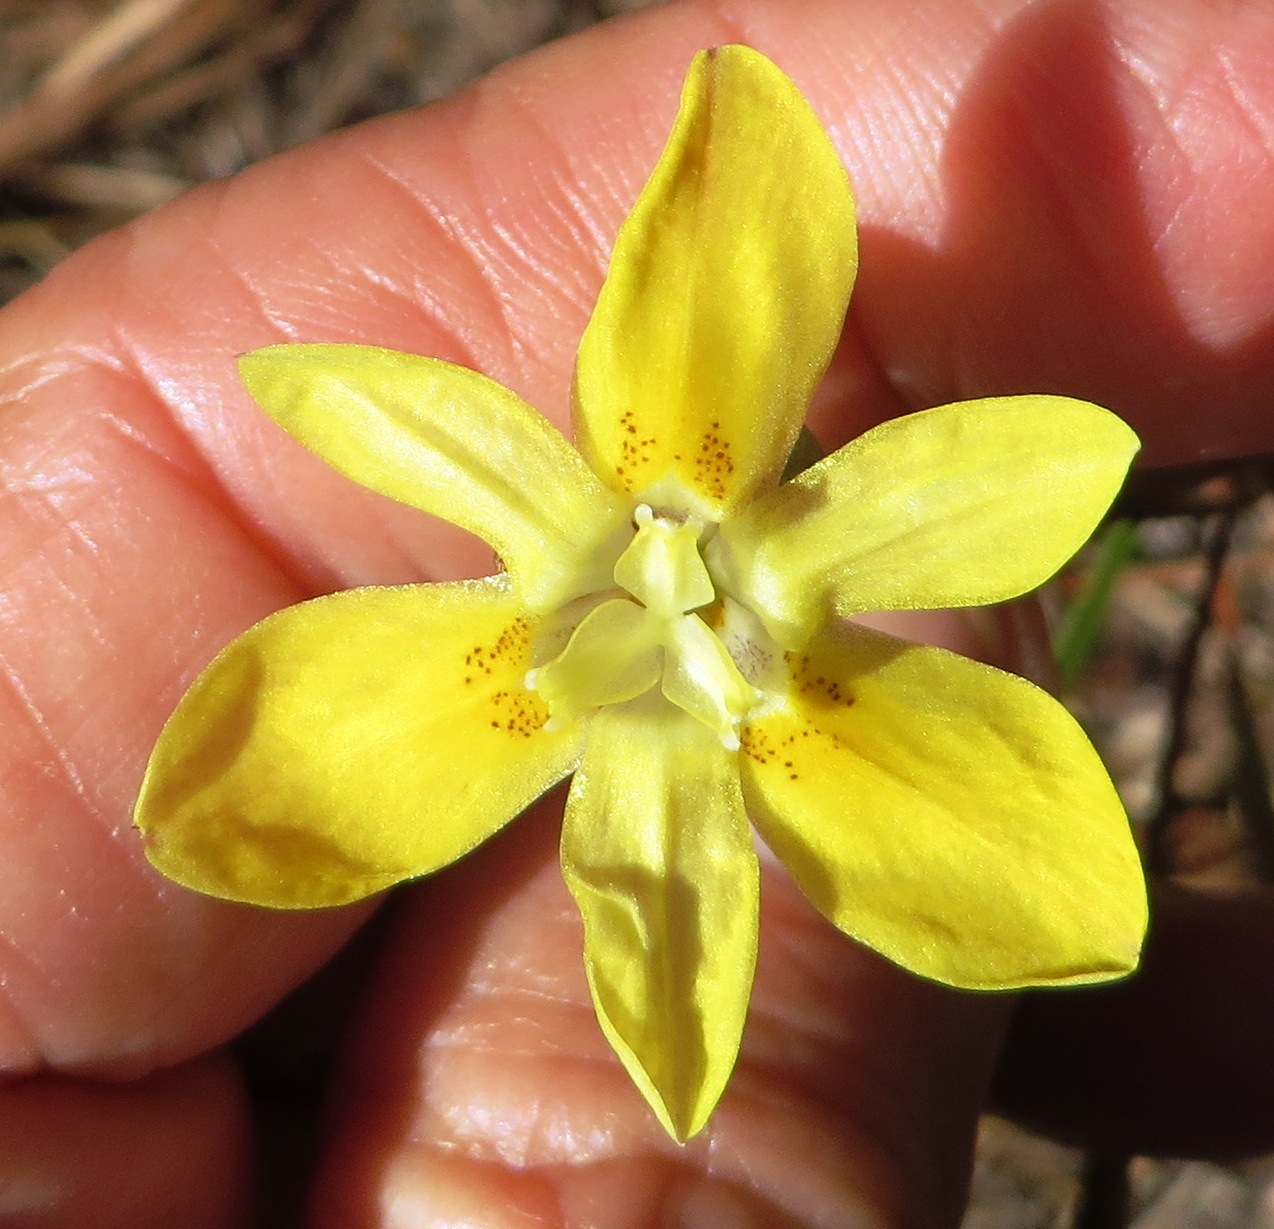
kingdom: Plantae
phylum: Tracheophyta
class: Liliopsida
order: Asparagales
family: Iridaceae
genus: Moraea
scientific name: Moraea elsiae
